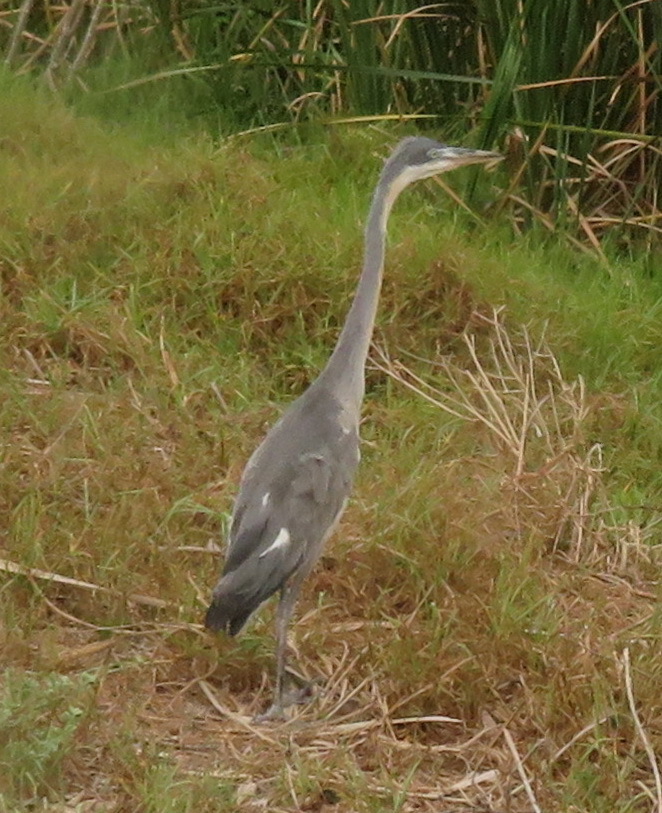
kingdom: Animalia
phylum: Chordata
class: Aves
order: Pelecaniformes
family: Ardeidae
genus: Ardea
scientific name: Ardea melanocephala
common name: Black-headed heron
